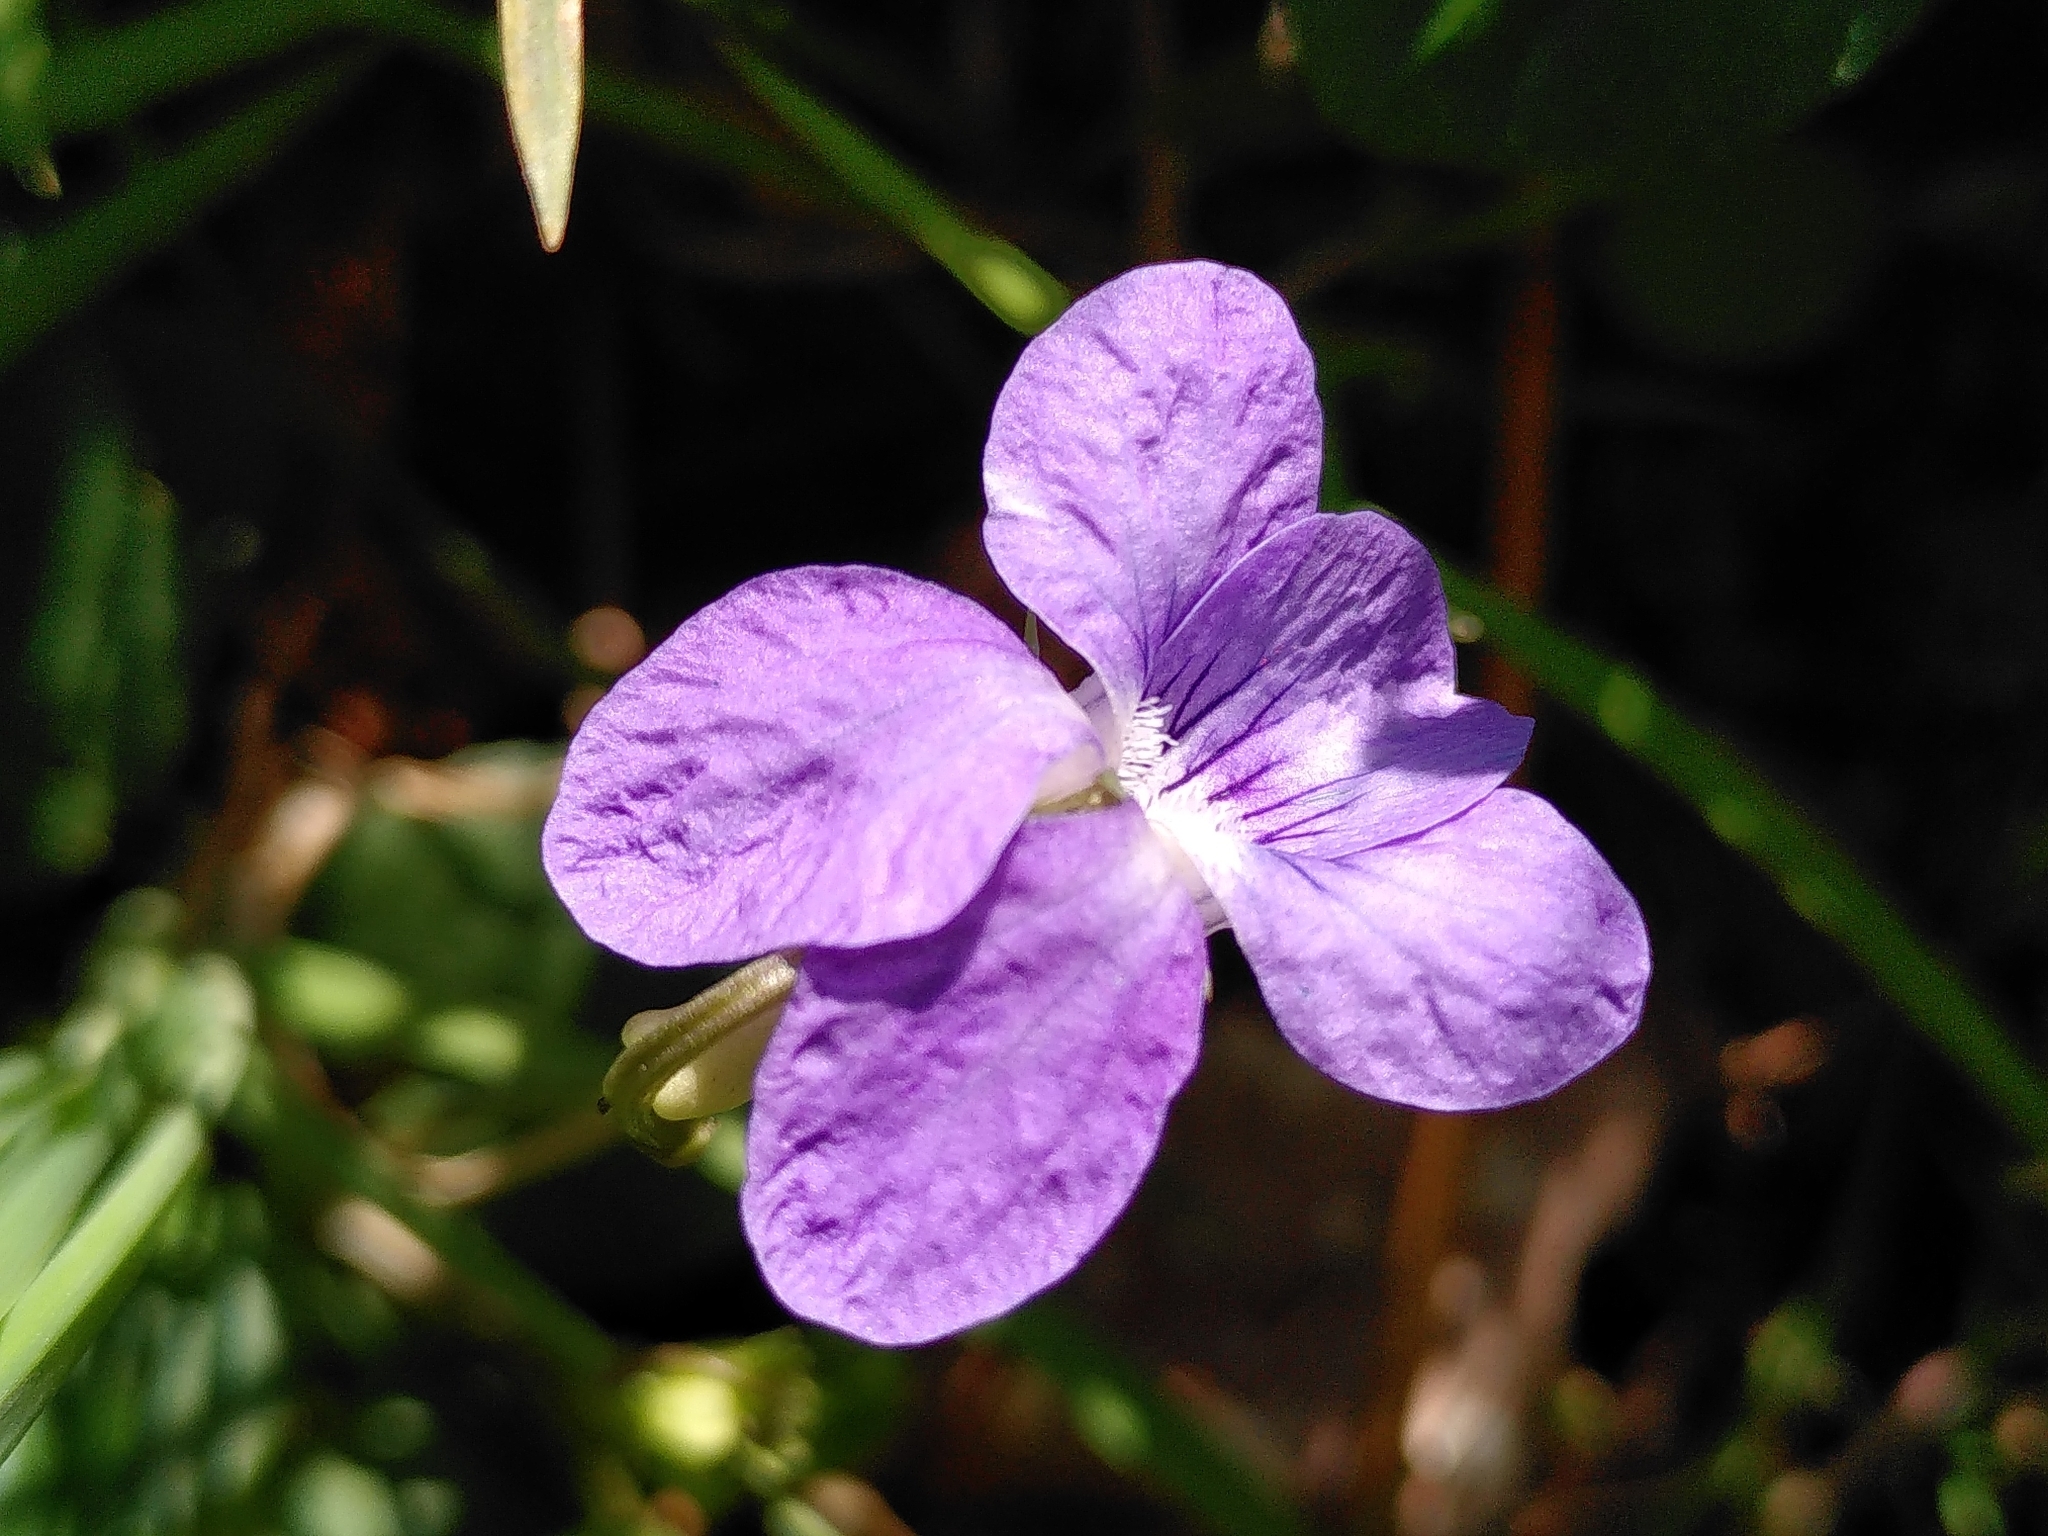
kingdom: Plantae
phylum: Tracheophyta
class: Magnoliopsida
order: Malpighiales
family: Violaceae
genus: Viola
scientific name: Viola riviniana
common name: Common dog-violet
